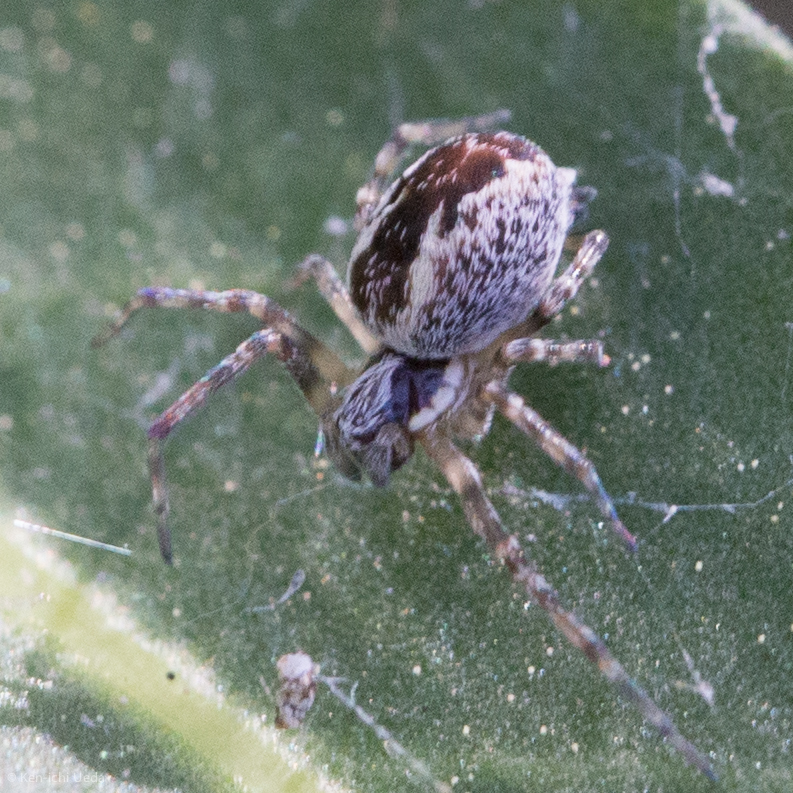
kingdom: Animalia
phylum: Arthropoda
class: Arachnida
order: Araneae
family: Dictynidae
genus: Mallos
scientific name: Mallos pallidus
